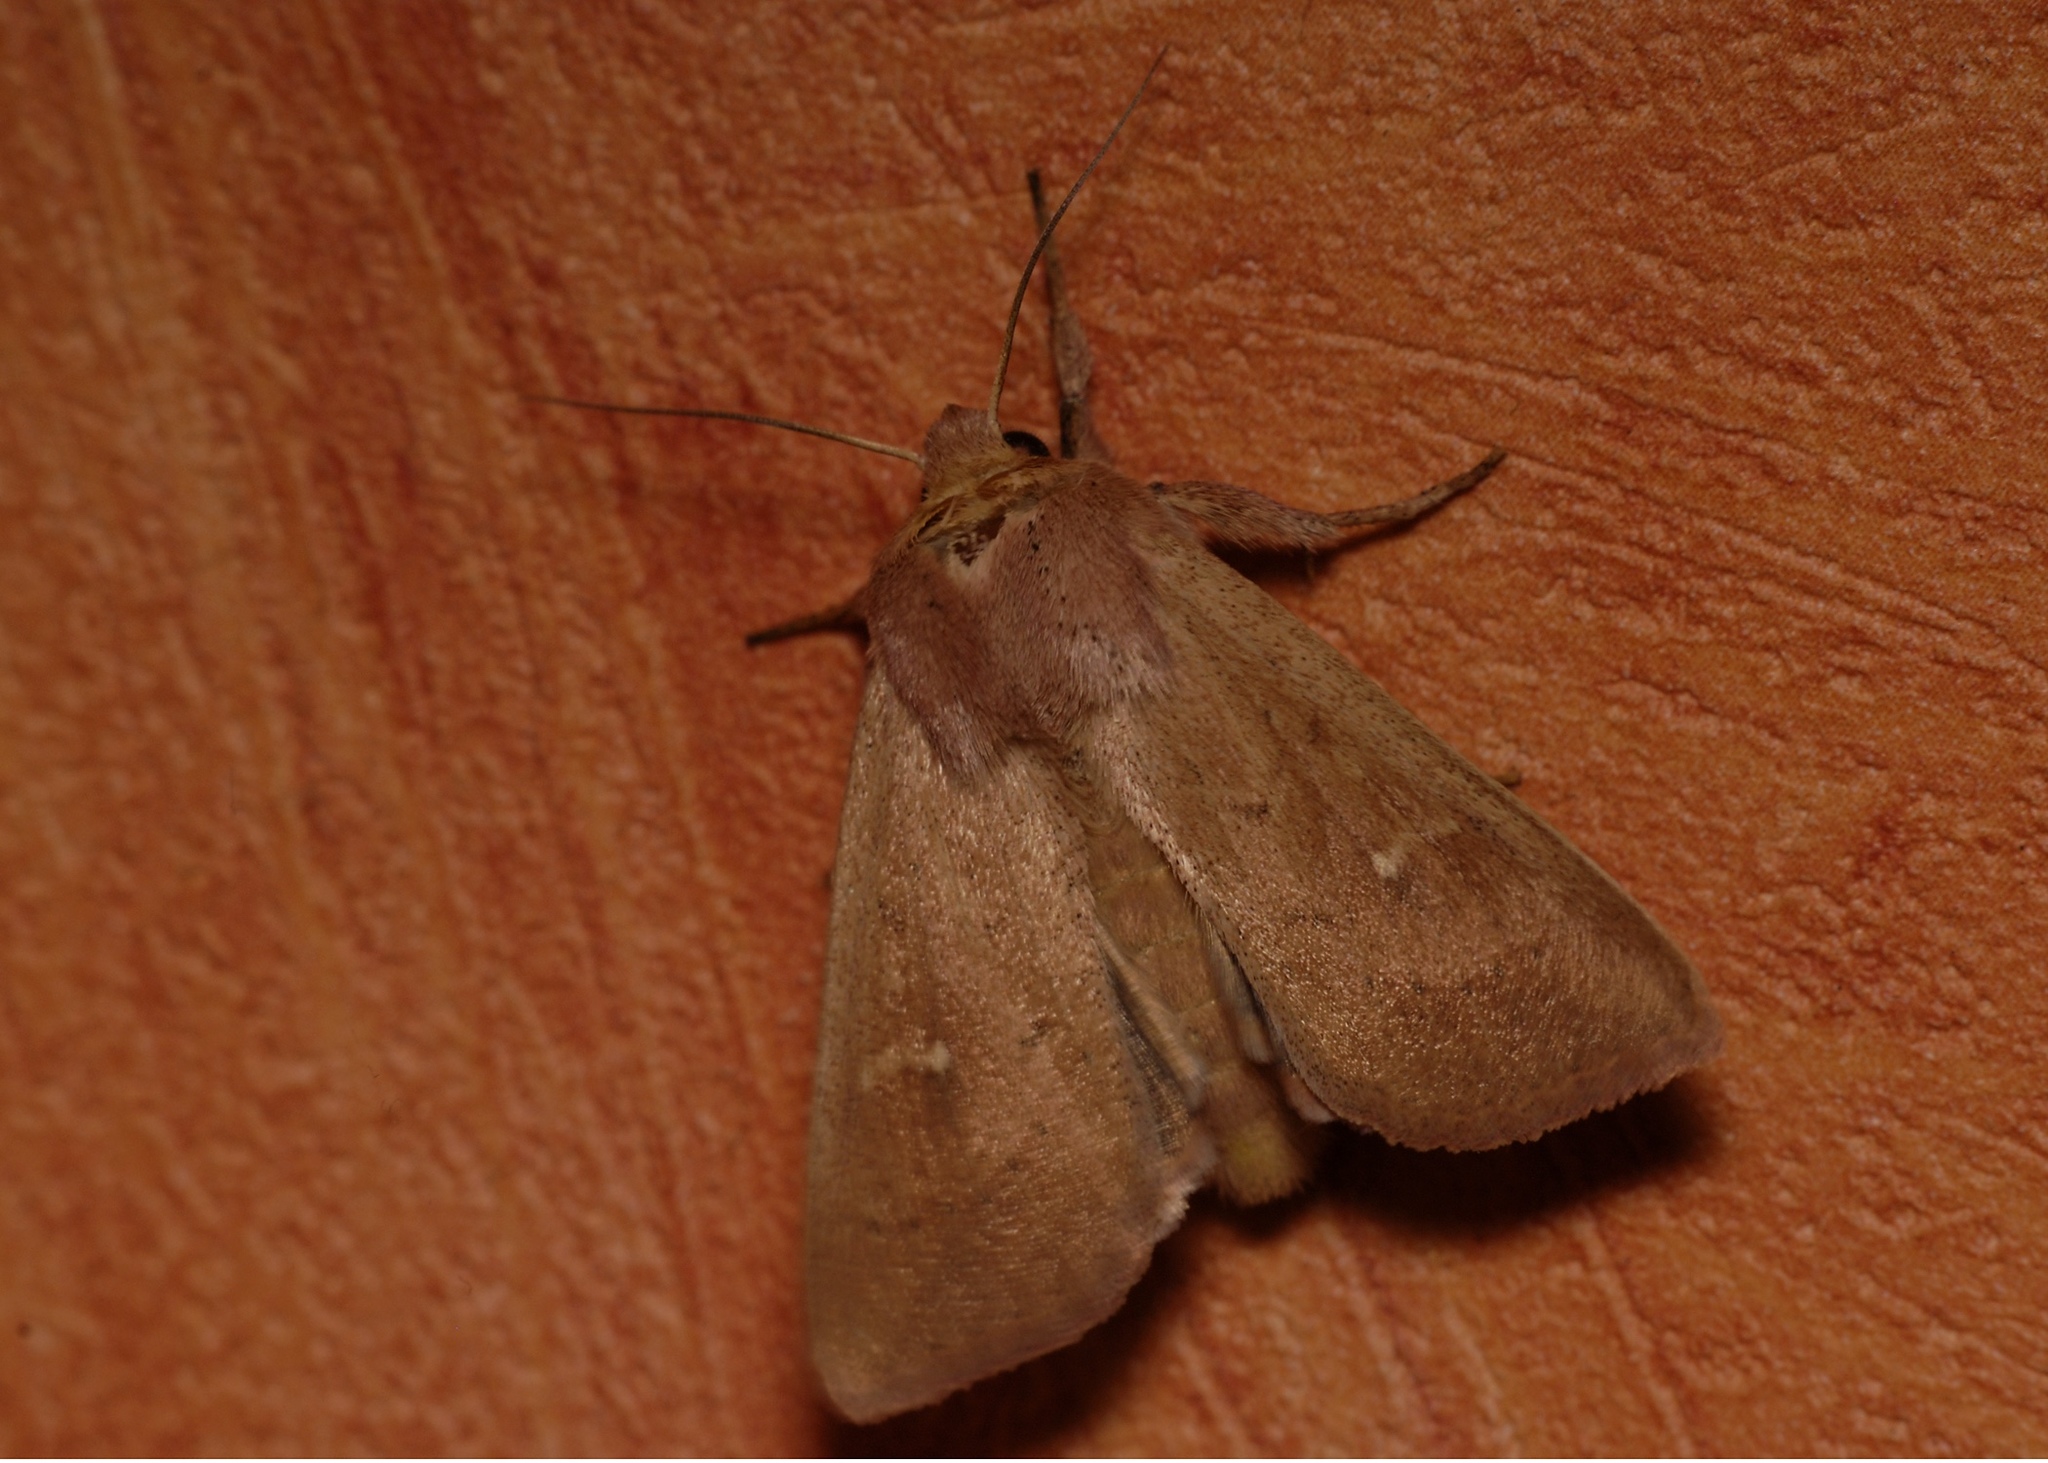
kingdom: Animalia
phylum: Arthropoda
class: Insecta
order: Lepidoptera
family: Noctuidae
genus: Mythimna
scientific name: Mythimna ferrago
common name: Clay
